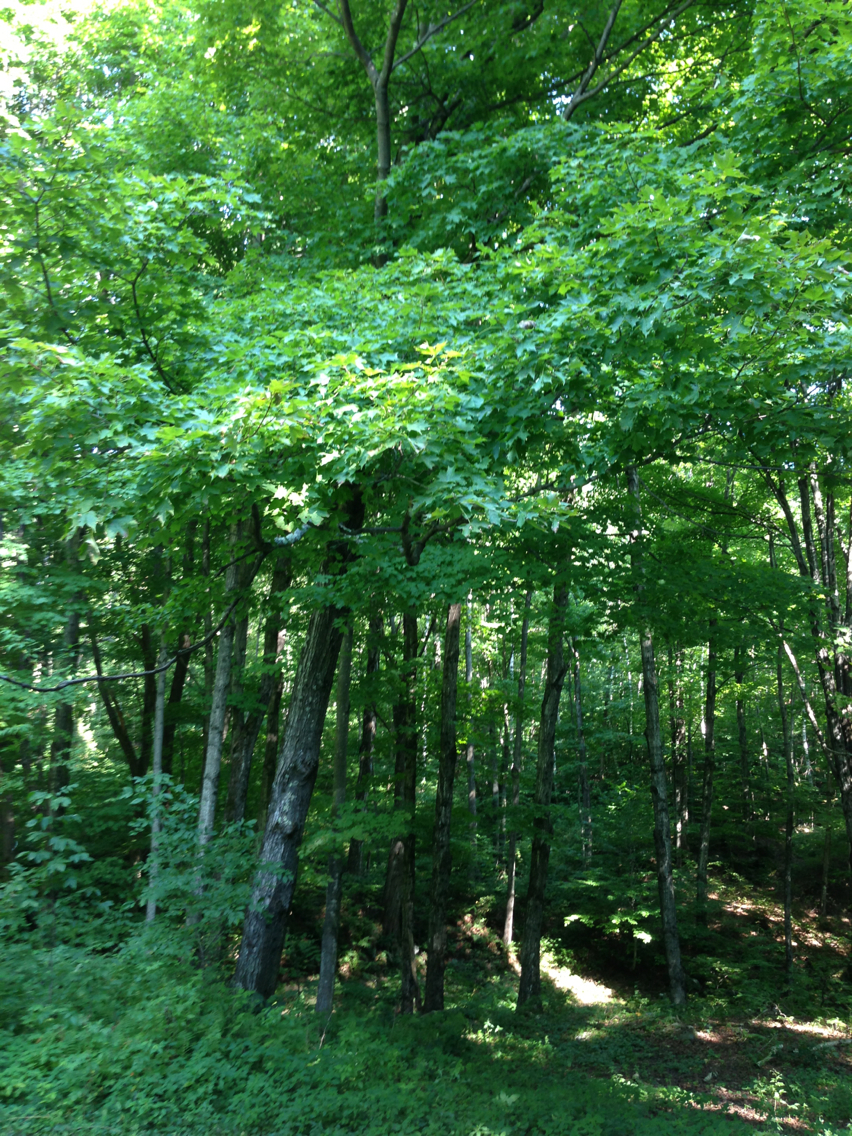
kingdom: Plantae
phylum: Tracheophyta
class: Magnoliopsida
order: Sapindales
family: Sapindaceae
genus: Acer
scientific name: Acer saccharum
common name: Sugar maple
